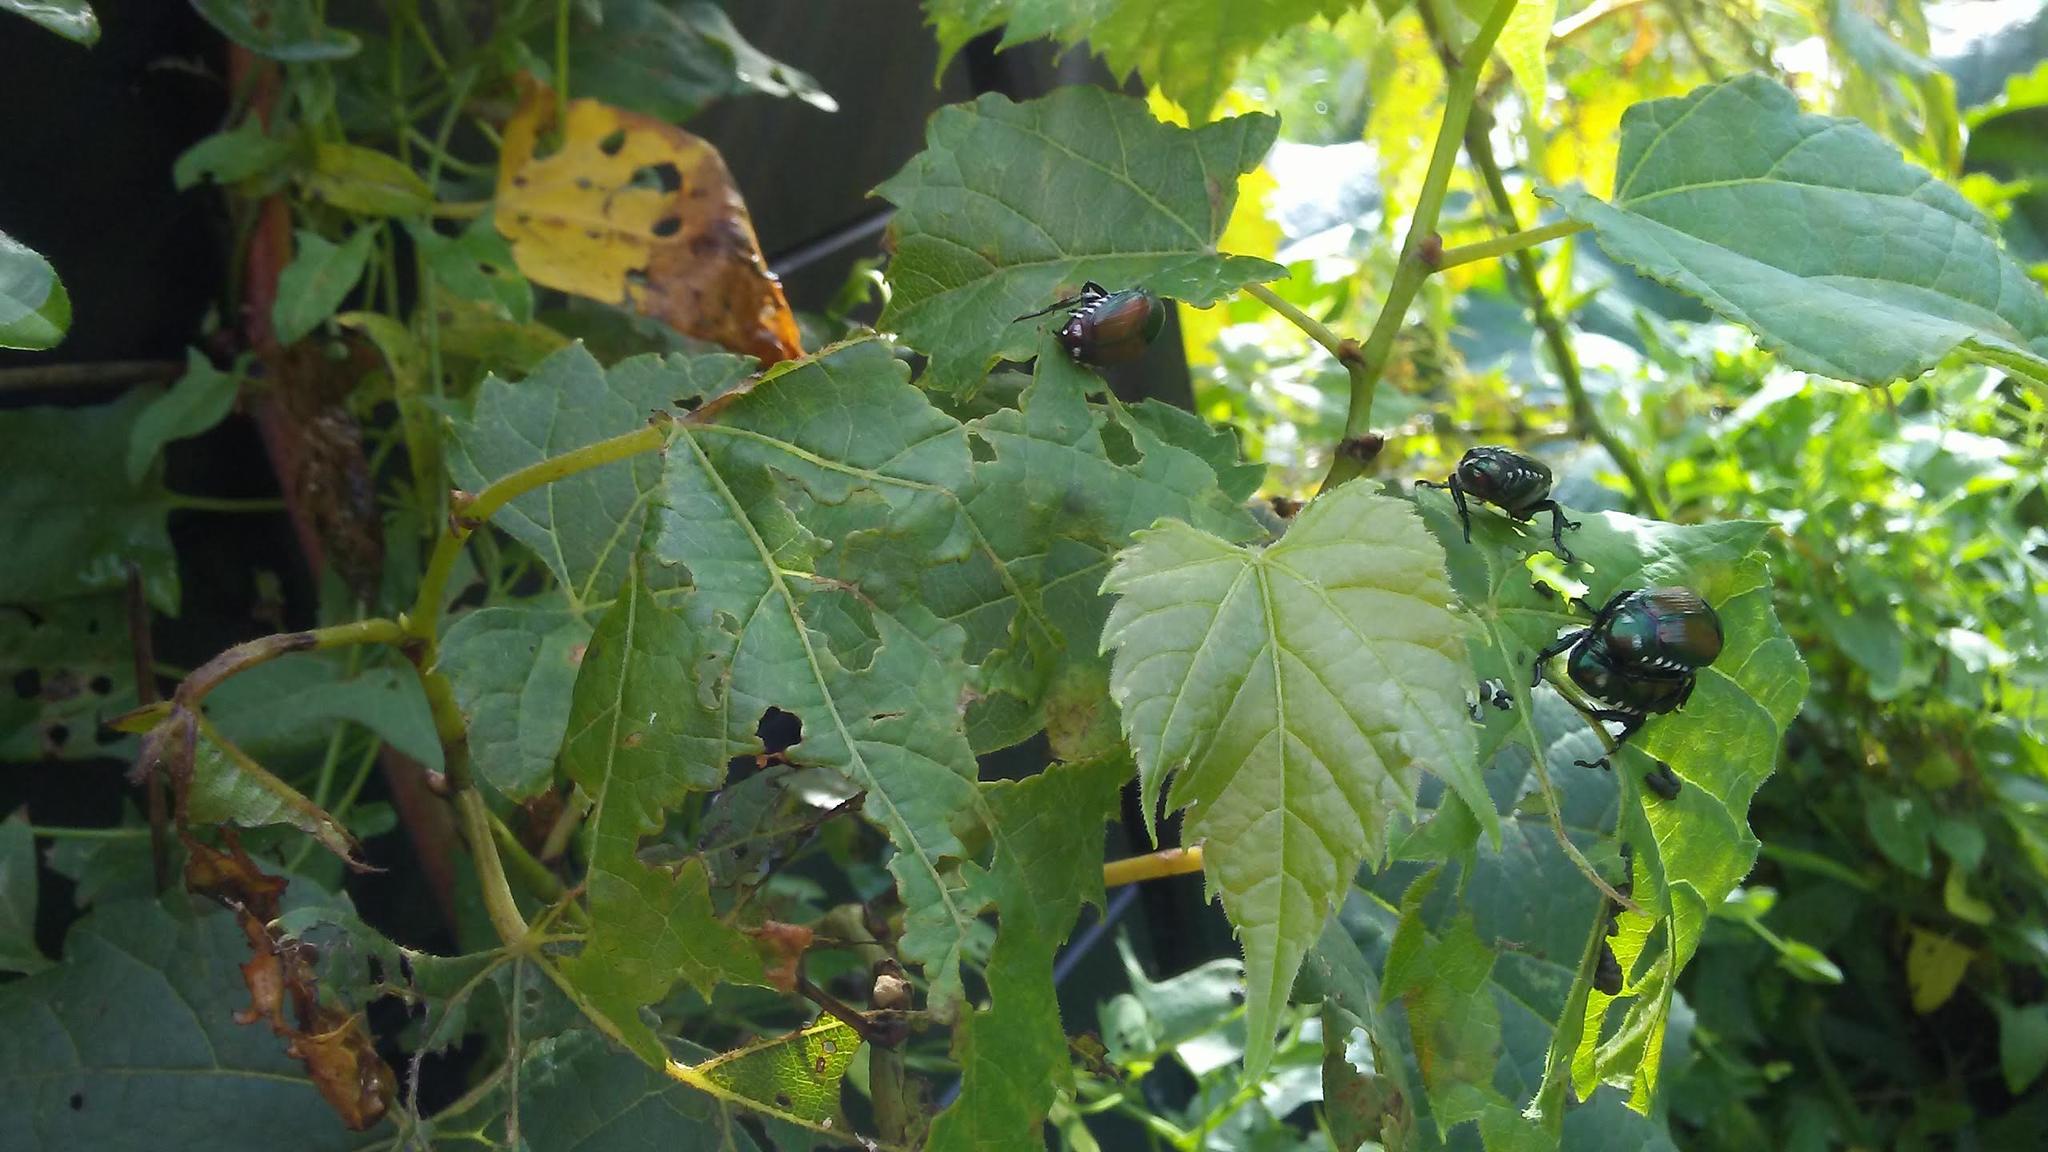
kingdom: Animalia
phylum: Arthropoda
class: Insecta
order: Coleoptera
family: Scarabaeidae
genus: Popillia
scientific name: Popillia japonica
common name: Japanese beetle
